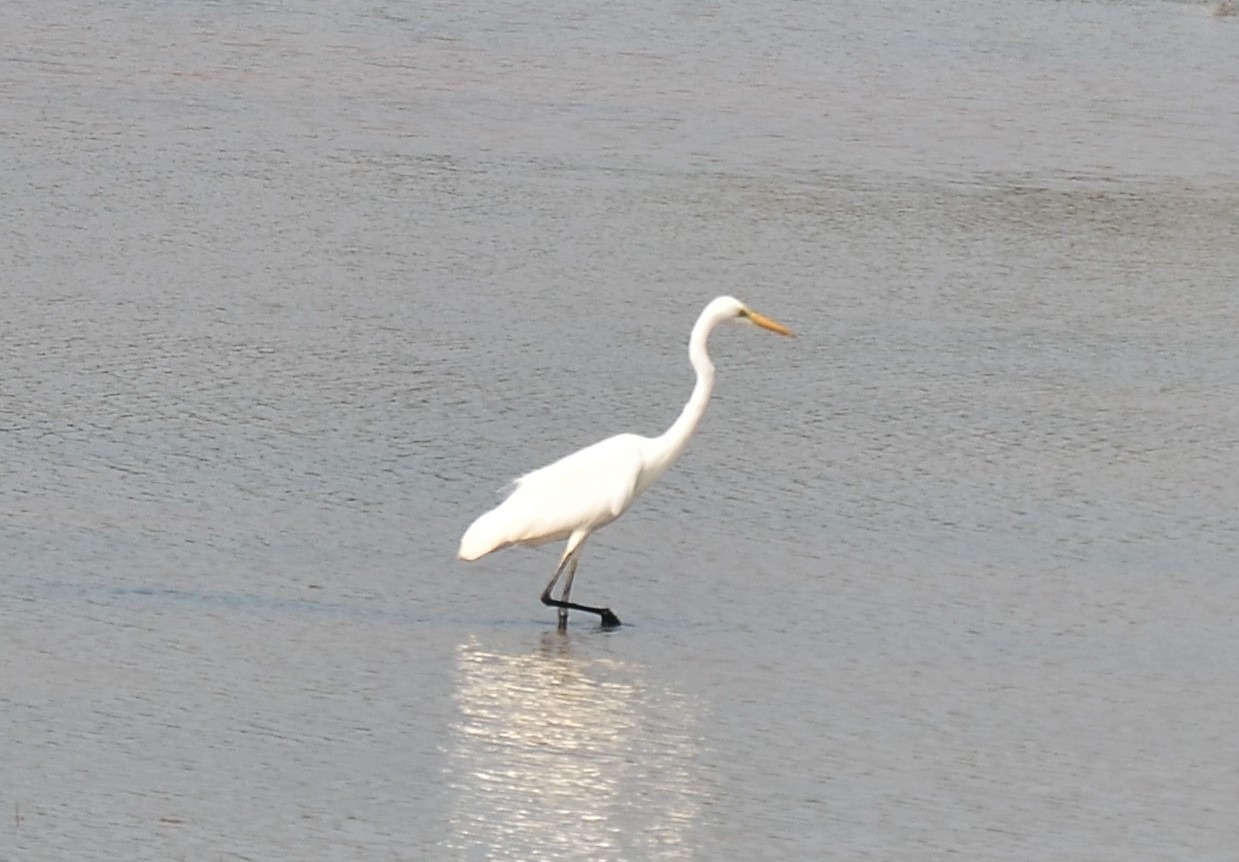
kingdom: Animalia
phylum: Chordata
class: Aves
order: Pelecaniformes
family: Ardeidae
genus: Ardea
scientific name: Ardea alba
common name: Great egret
